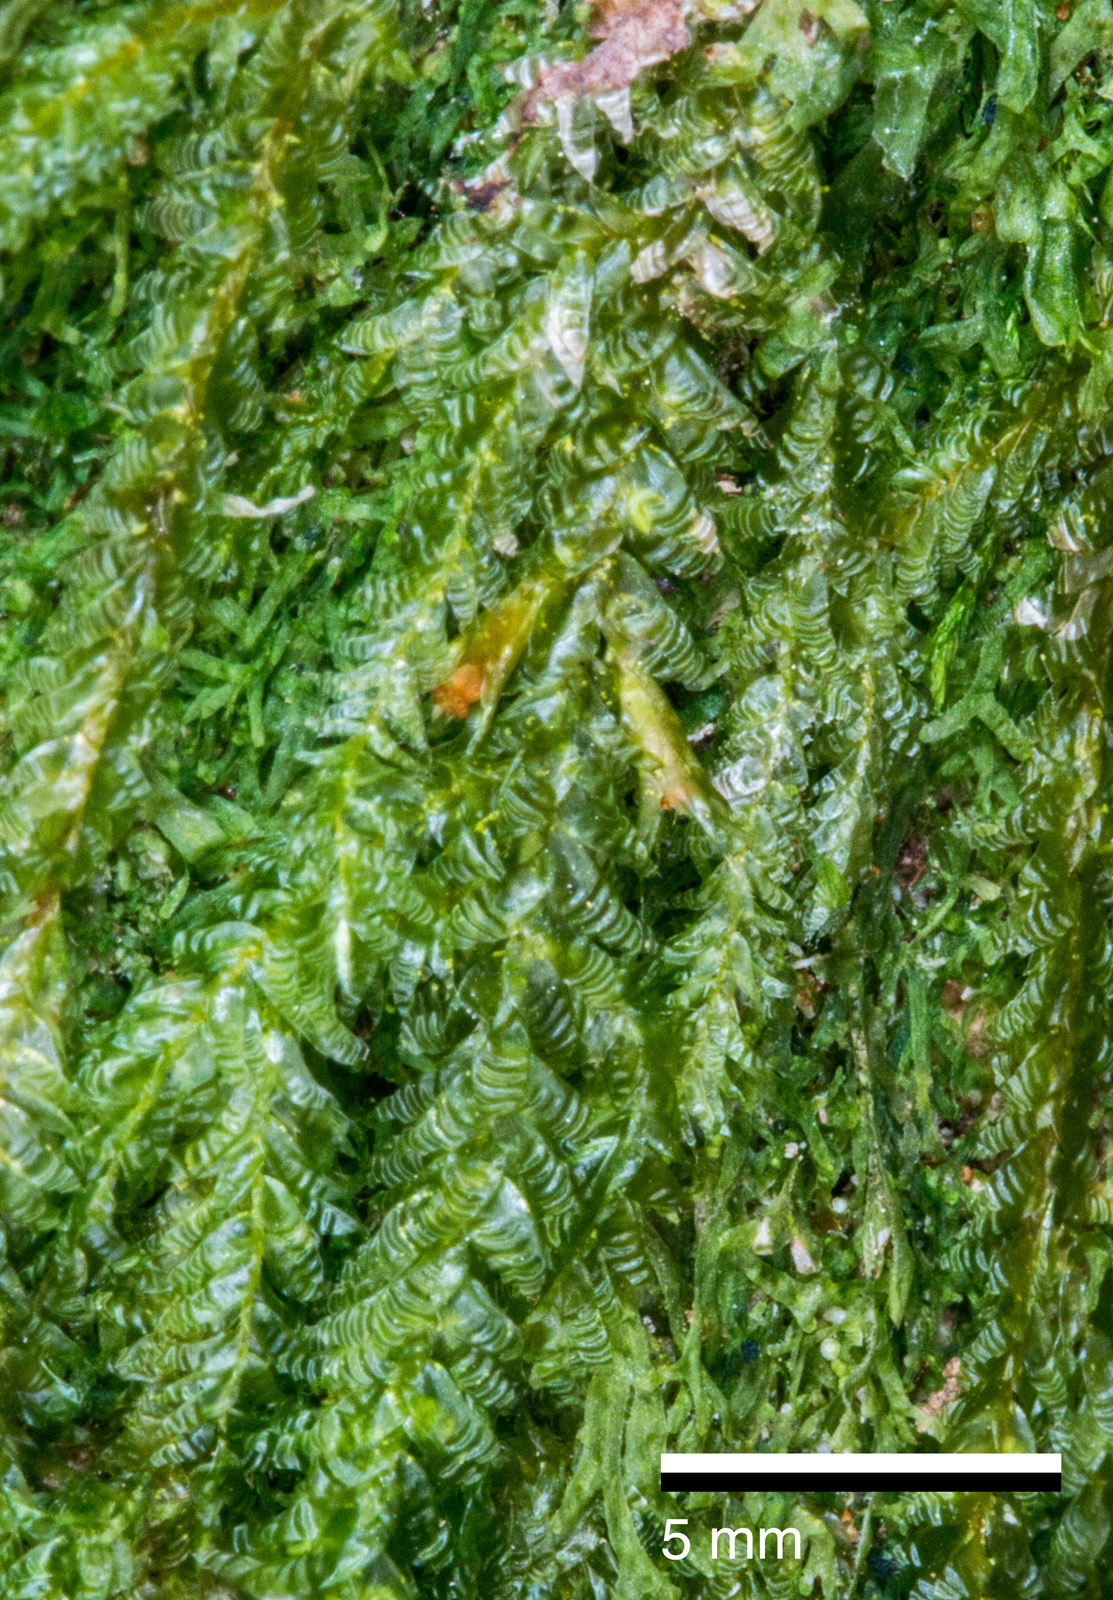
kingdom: Plantae
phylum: Bryophyta
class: Bryopsida
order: Hypnales
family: Neckeraceae
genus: Alleniella
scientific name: Alleniella hymenodonta
